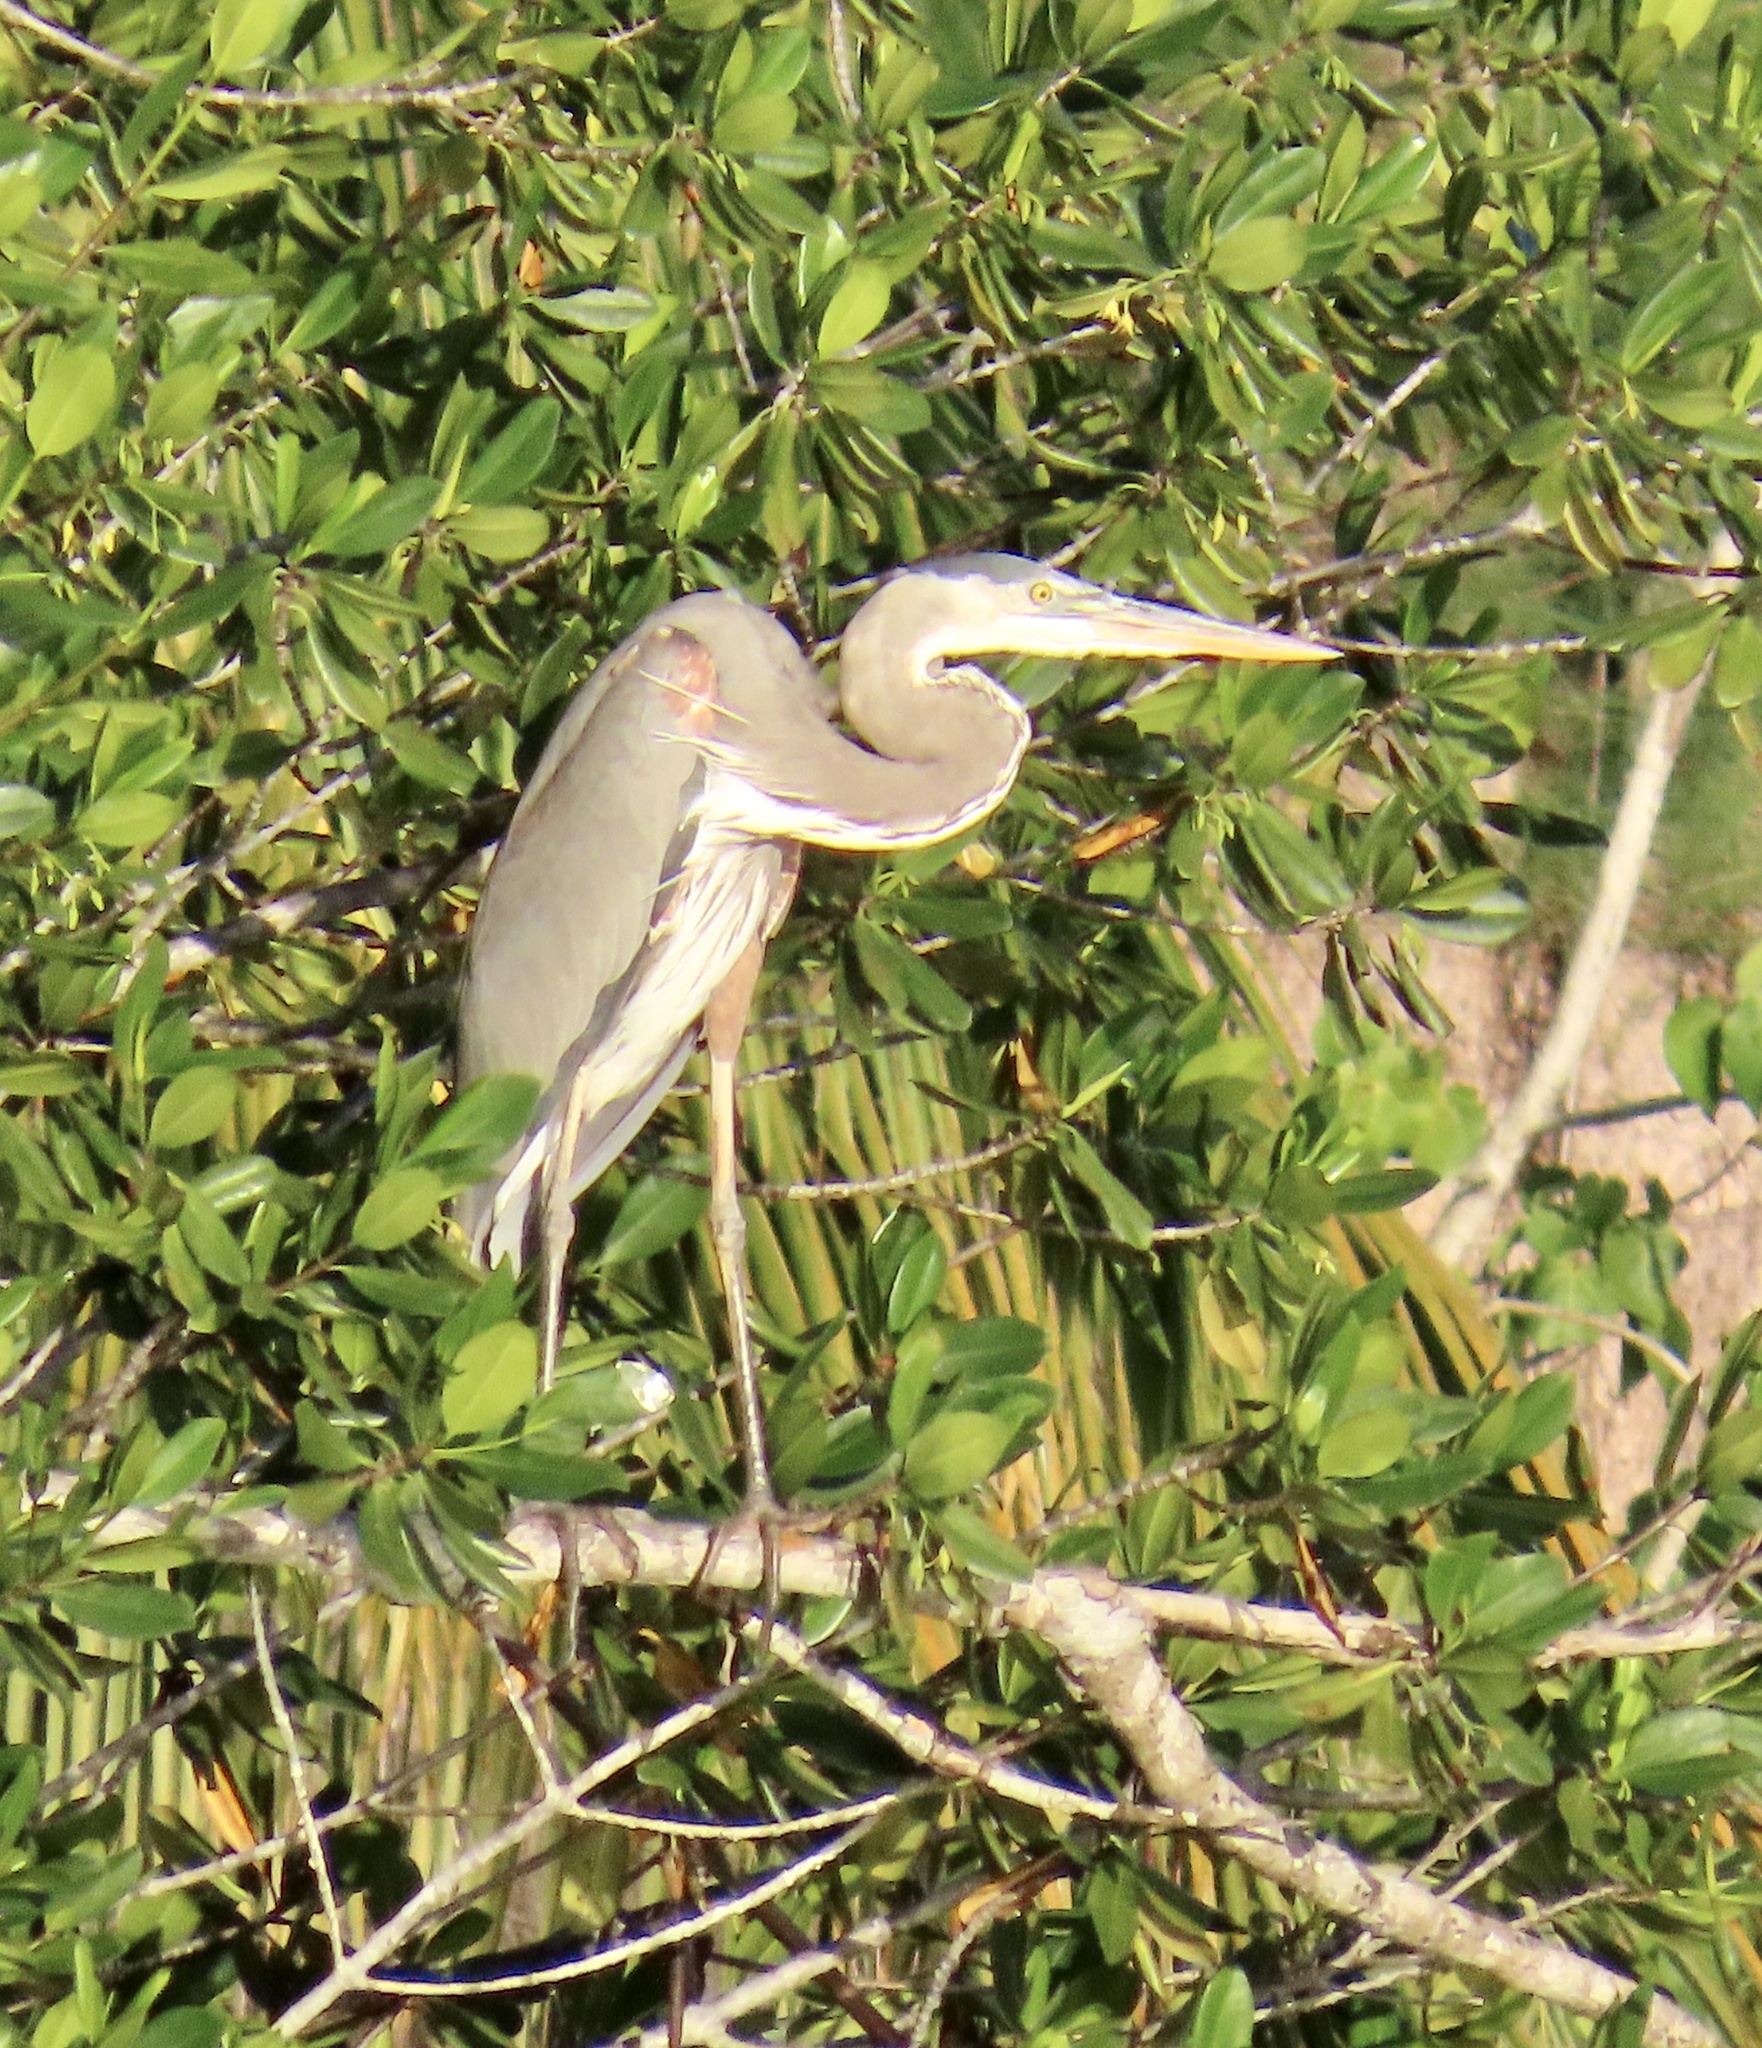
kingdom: Animalia
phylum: Chordata
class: Aves
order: Pelecaniformes
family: Ardeidae
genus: Ardea
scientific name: Ardea herodias
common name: Great blue heron
